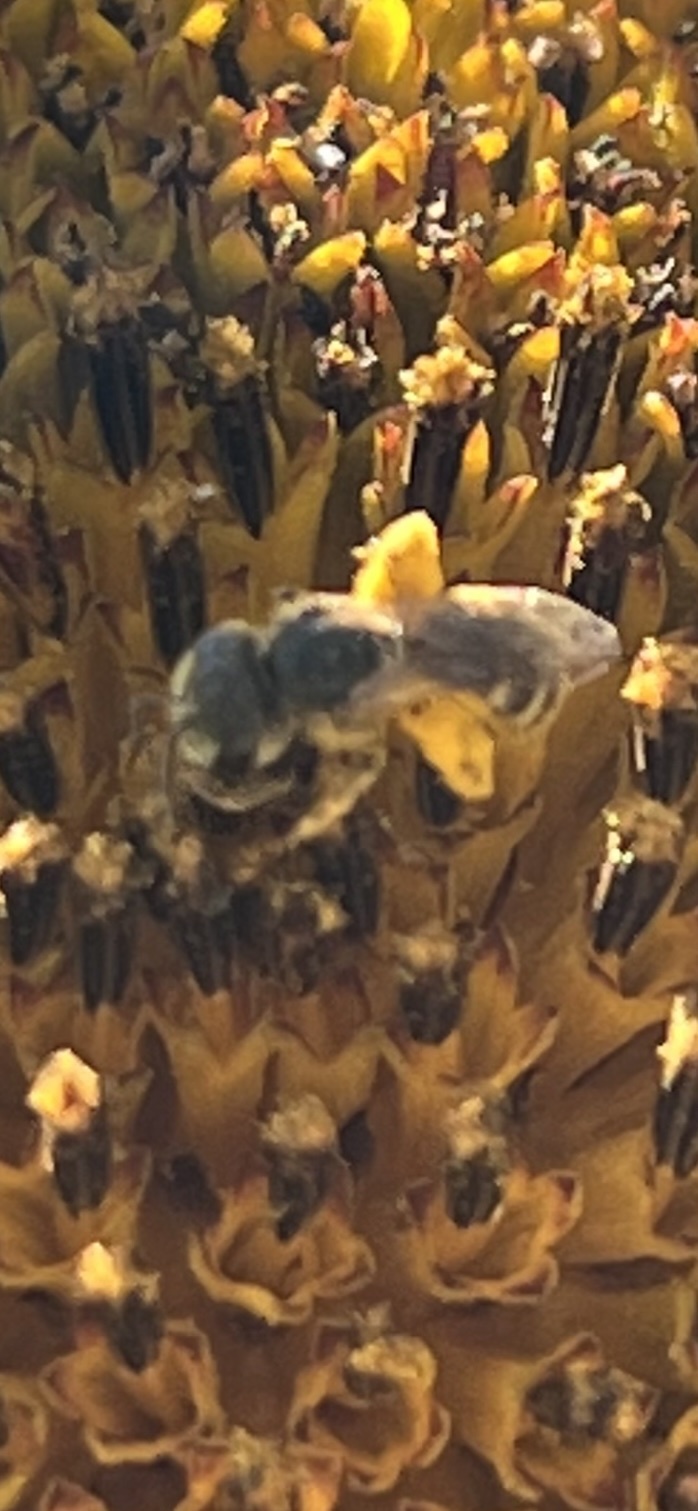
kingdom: Animalia
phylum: Arthropoda
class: Insecta
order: Hymenoptera
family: Halictidae
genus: Halictus
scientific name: Halictus ligatus
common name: Ligated furrow bee
